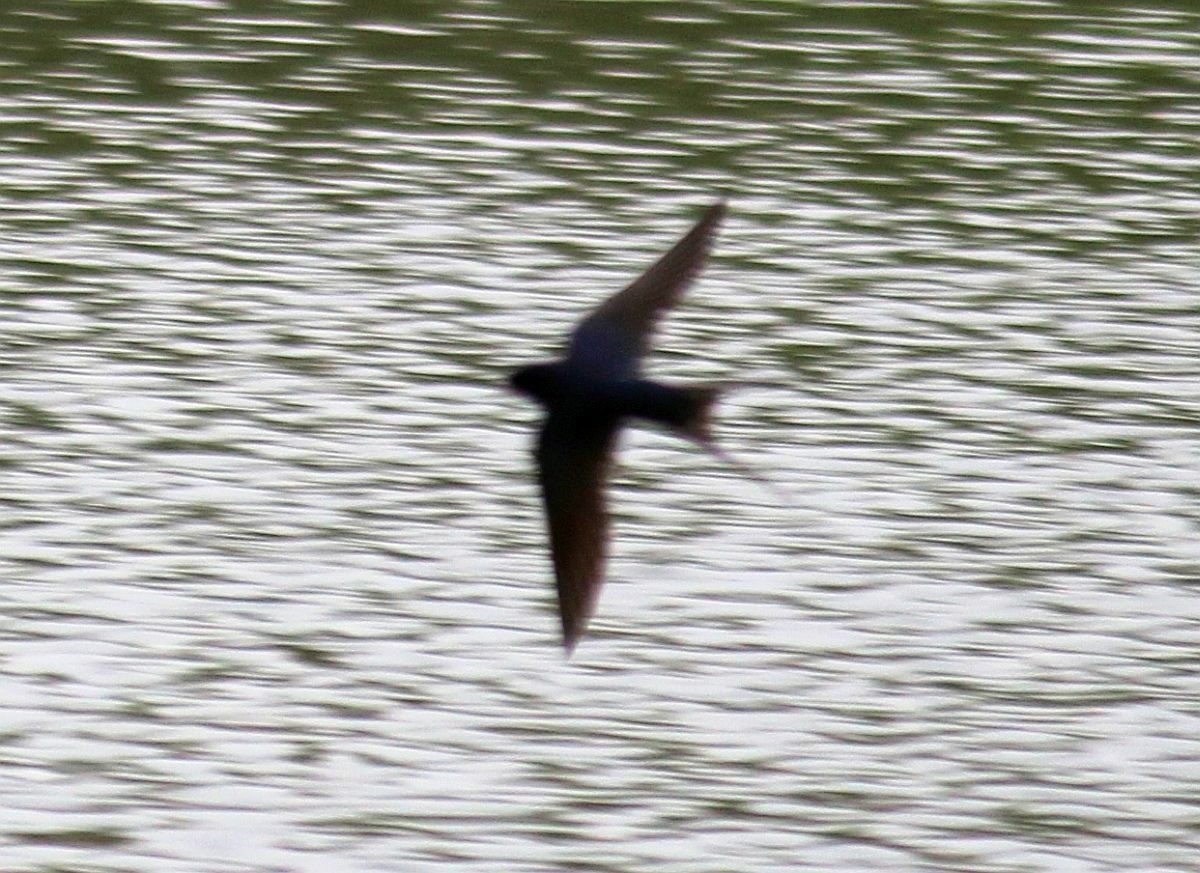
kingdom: Animalia
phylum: Chordata
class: Aves
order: Passeriformes
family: Hirundinidae
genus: Hirundo
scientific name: Hirundo rustica
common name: Barn swallow
